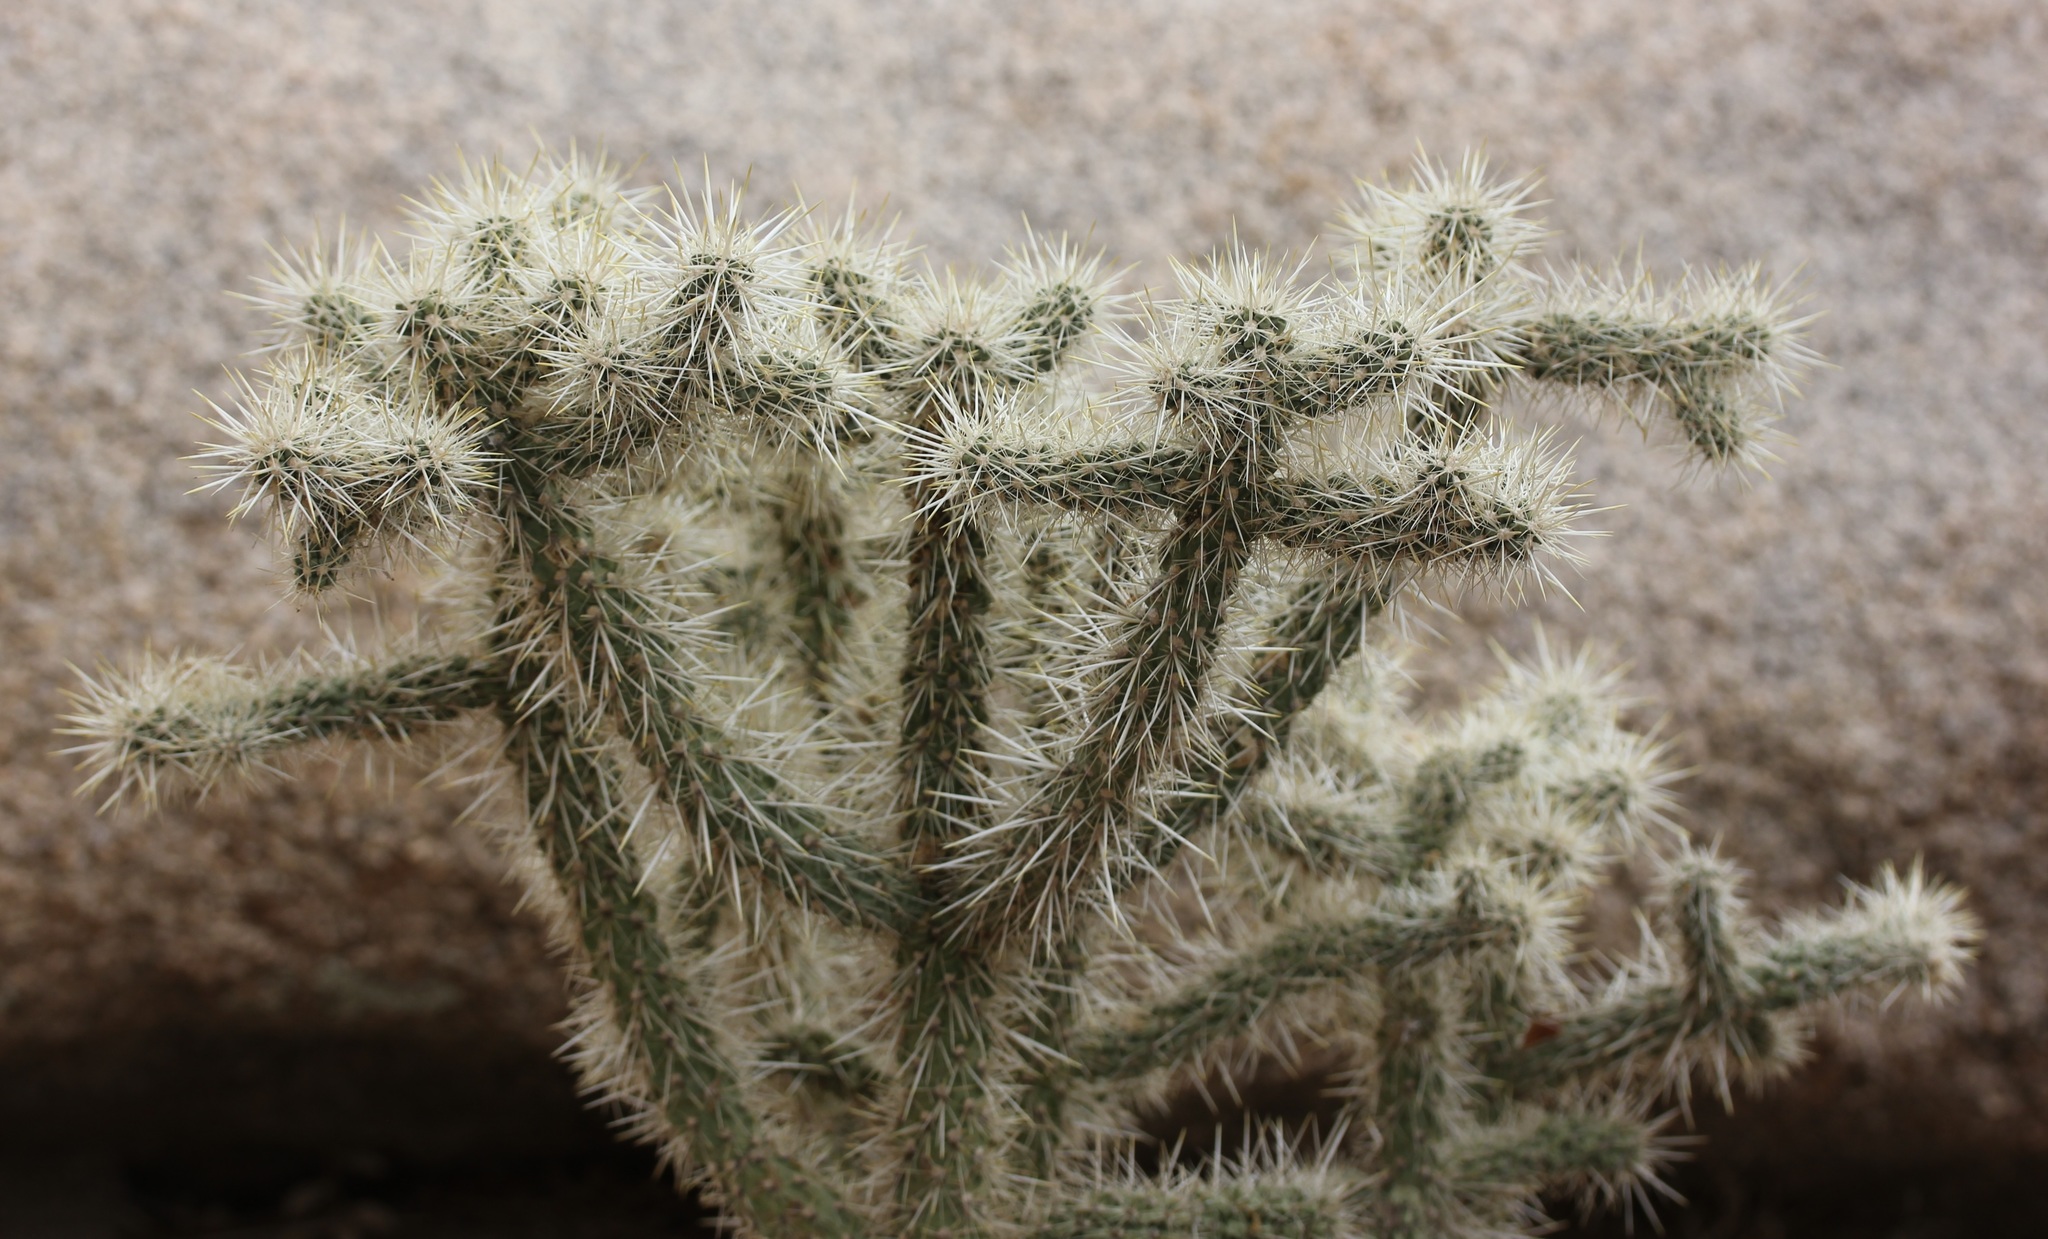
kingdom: Plantae
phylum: Tracheophyta
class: Magnoliopsida
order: Caryophyllales
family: Cactaceae
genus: Cylindropuntia
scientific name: Cylindropuntia echinocarpa
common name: Ground cholla
